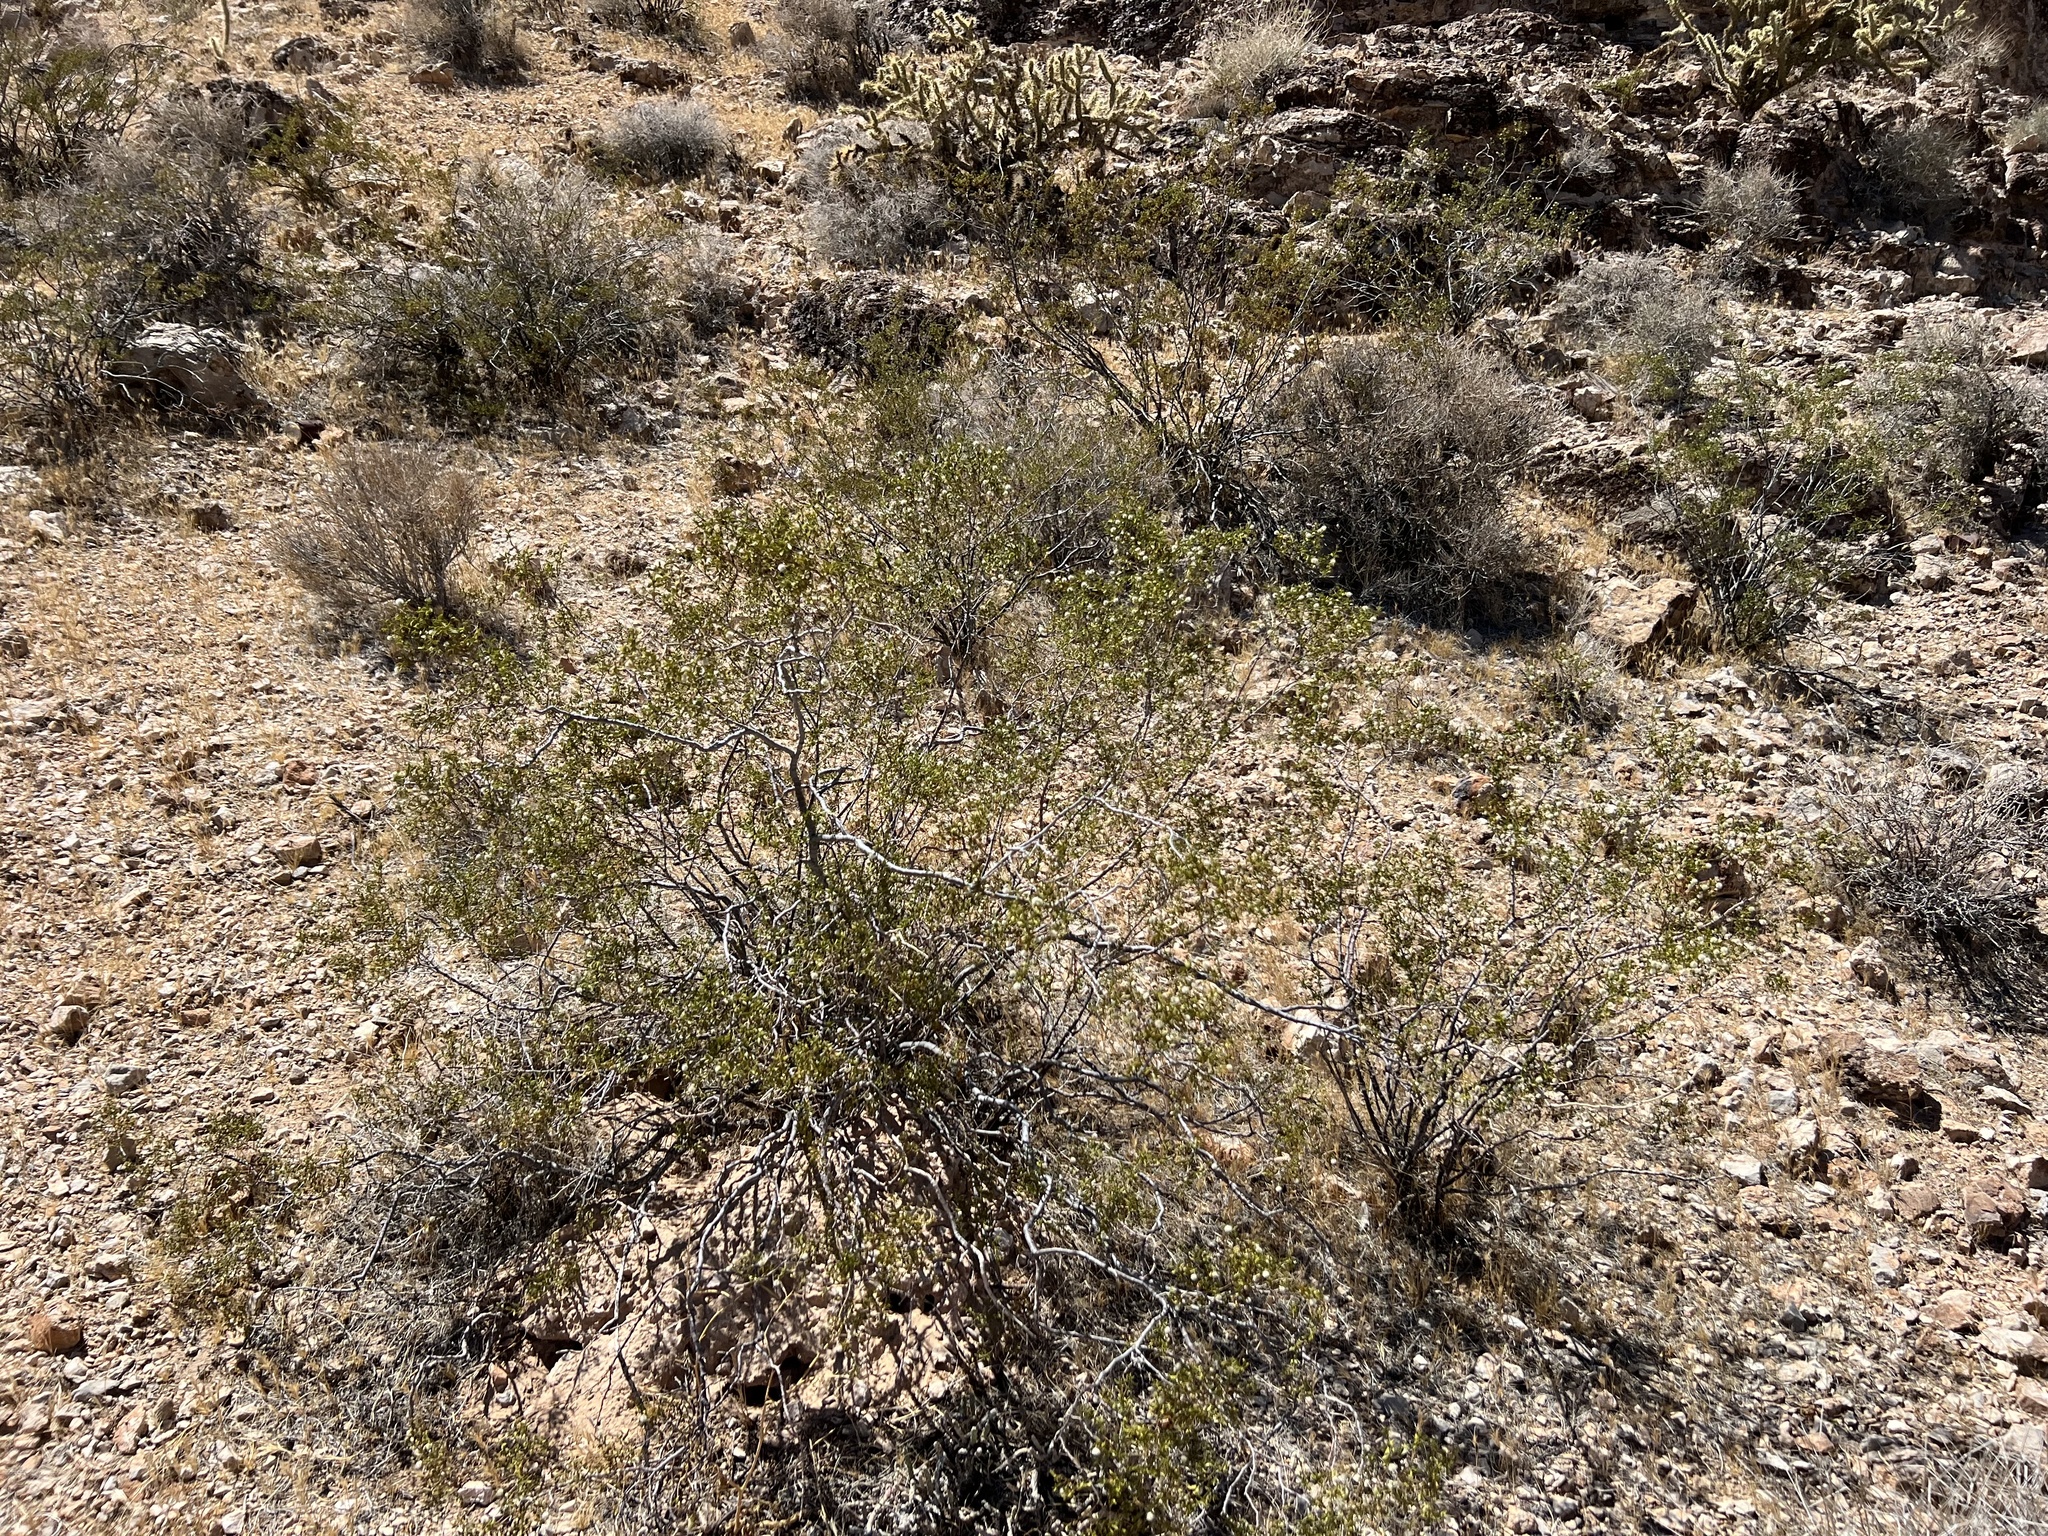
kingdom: Plantae
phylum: Tracheophyta
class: Magnoliopsida
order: Zygophyllales
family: Zygophyllaceae
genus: Larrea
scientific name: Larrea tridentata
